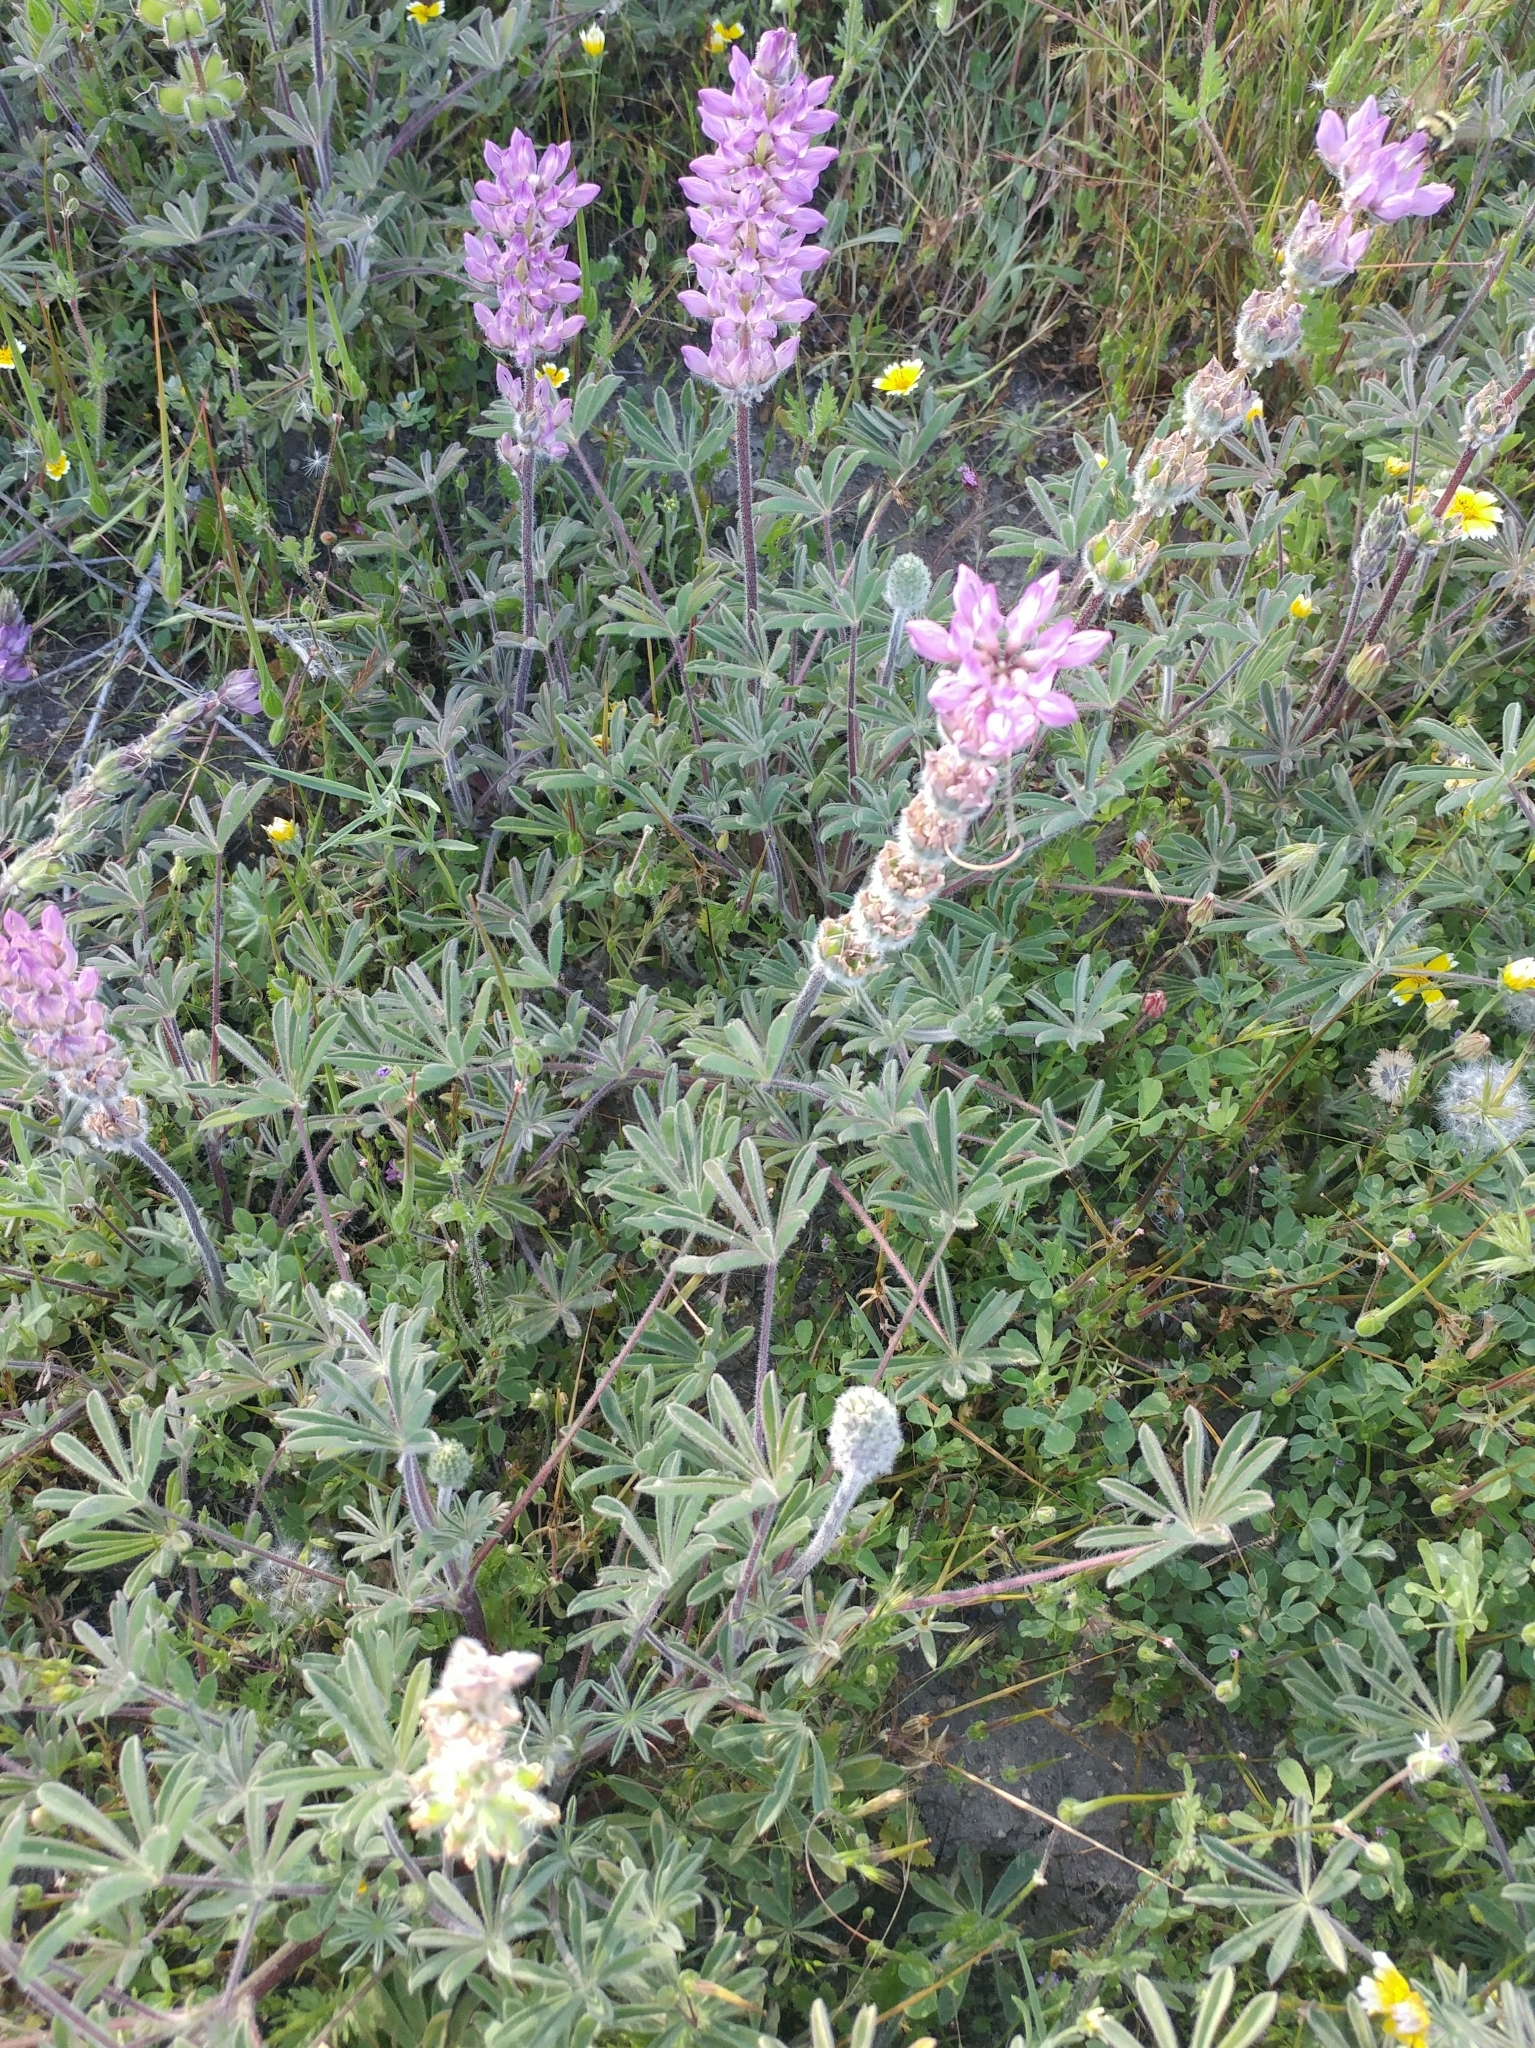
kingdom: Plantae
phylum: Tracheophyta
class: Magnoliopsida
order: Fabales
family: Fabaceae
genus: Lupinus
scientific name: Lupinus microcarpus
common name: Chick lupine
